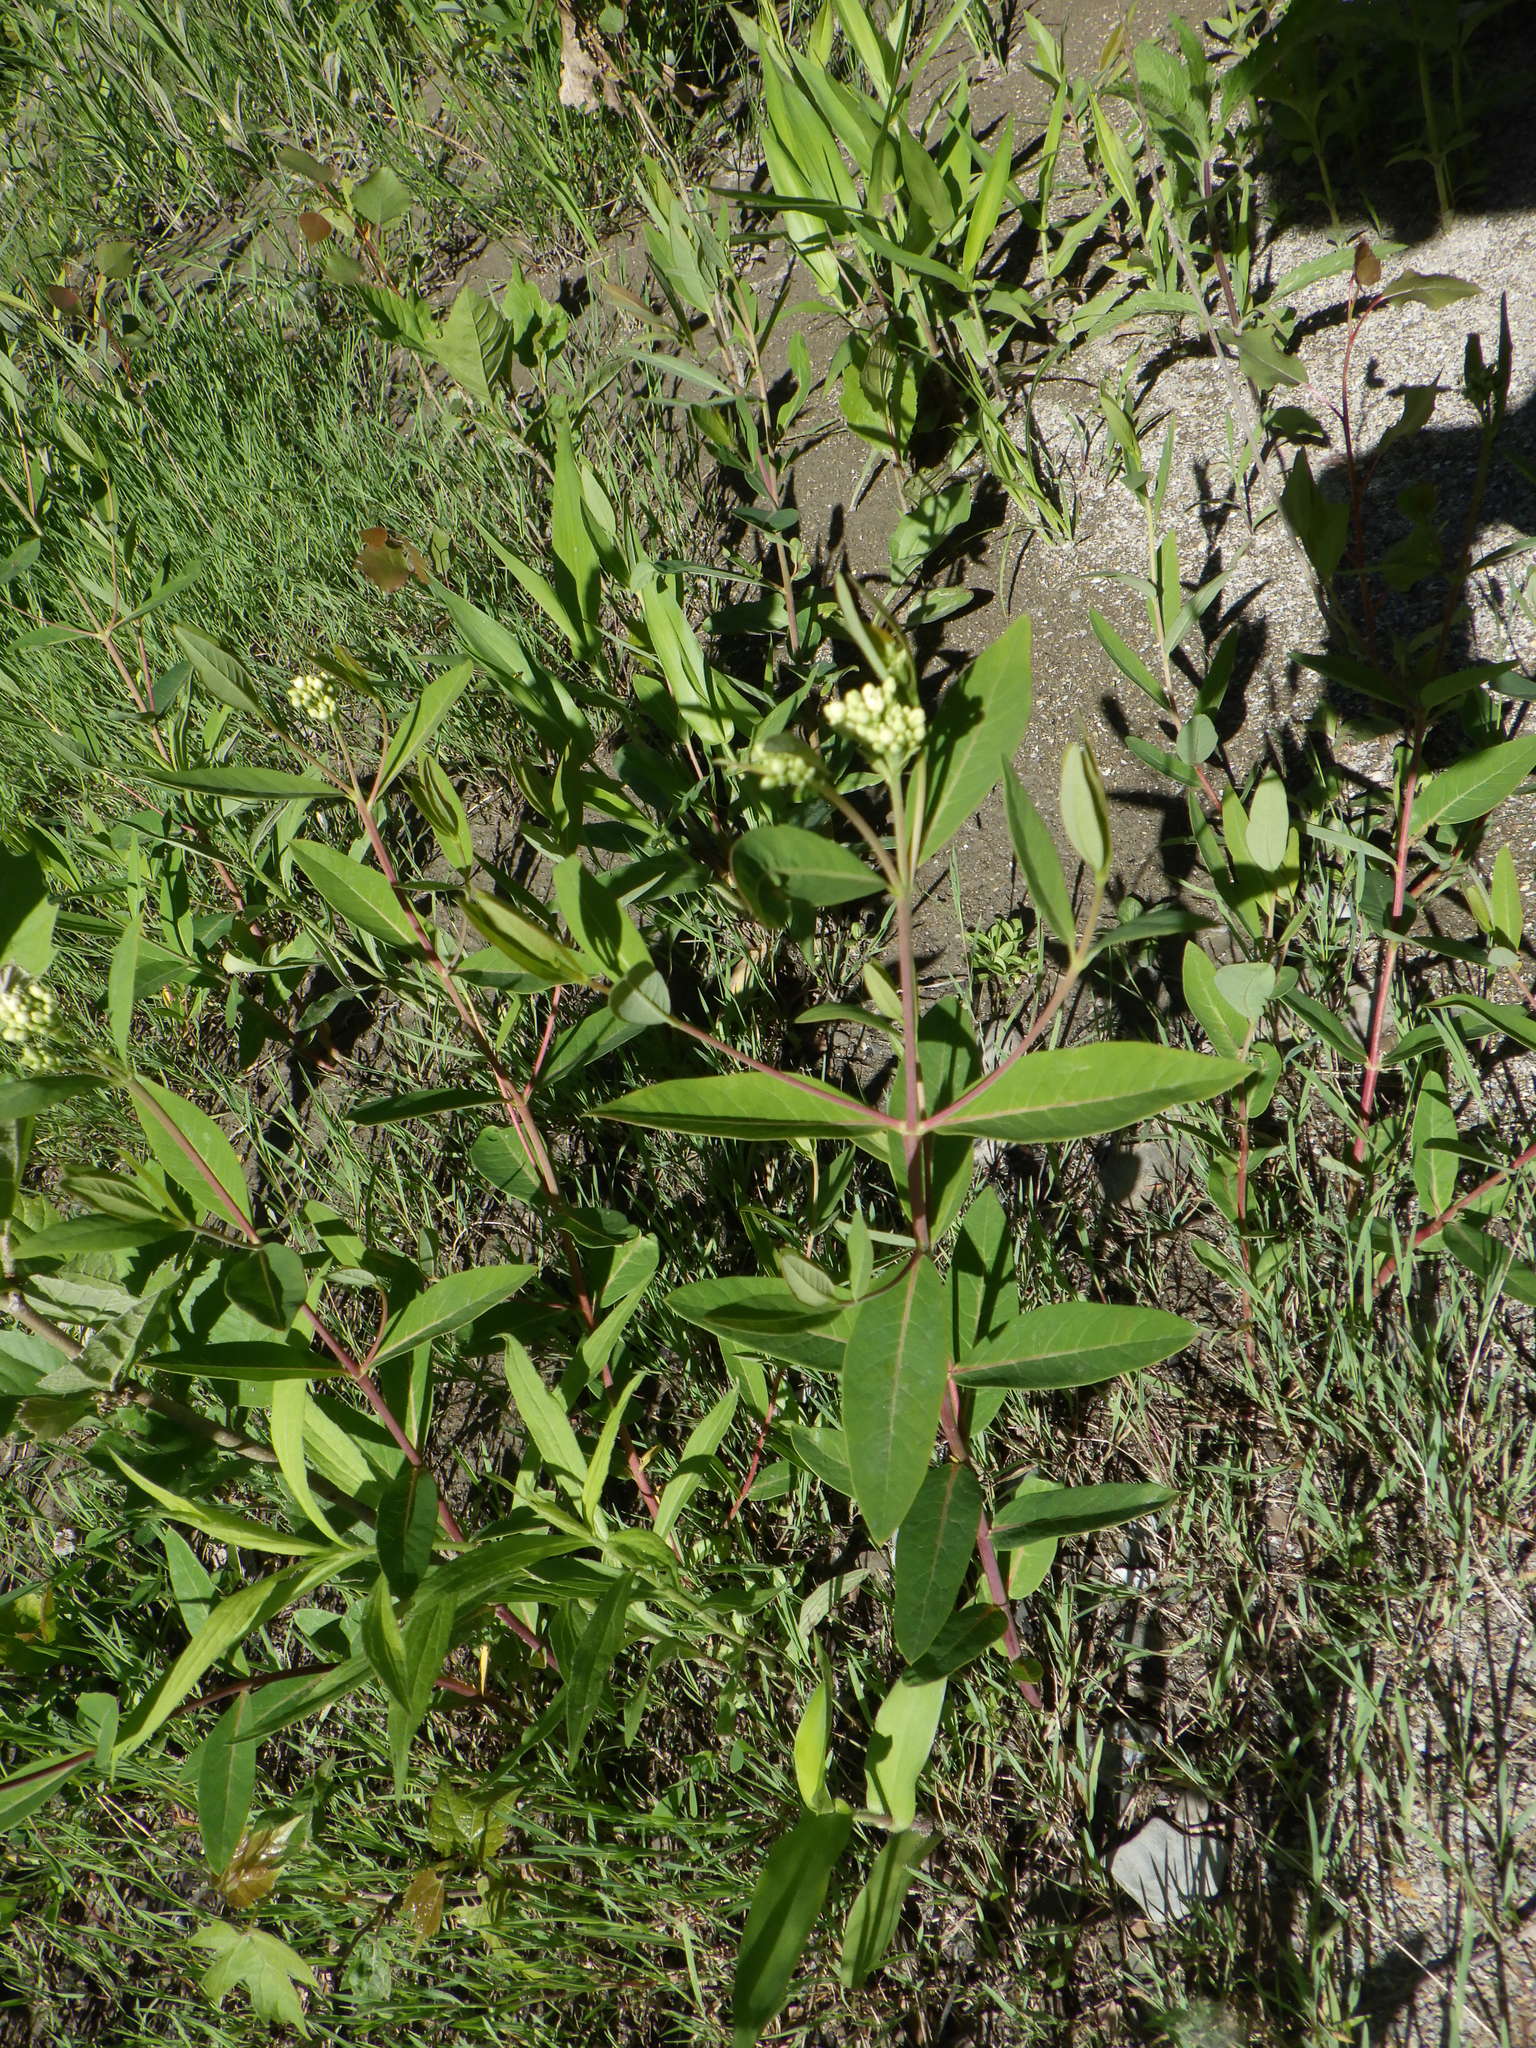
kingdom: Plantae
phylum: Tracheophyta
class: Magnoliopsida
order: Gentianales
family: Apocynaceae
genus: Apocynum
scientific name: Apocynum cannabinum
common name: Hemp dogbane
